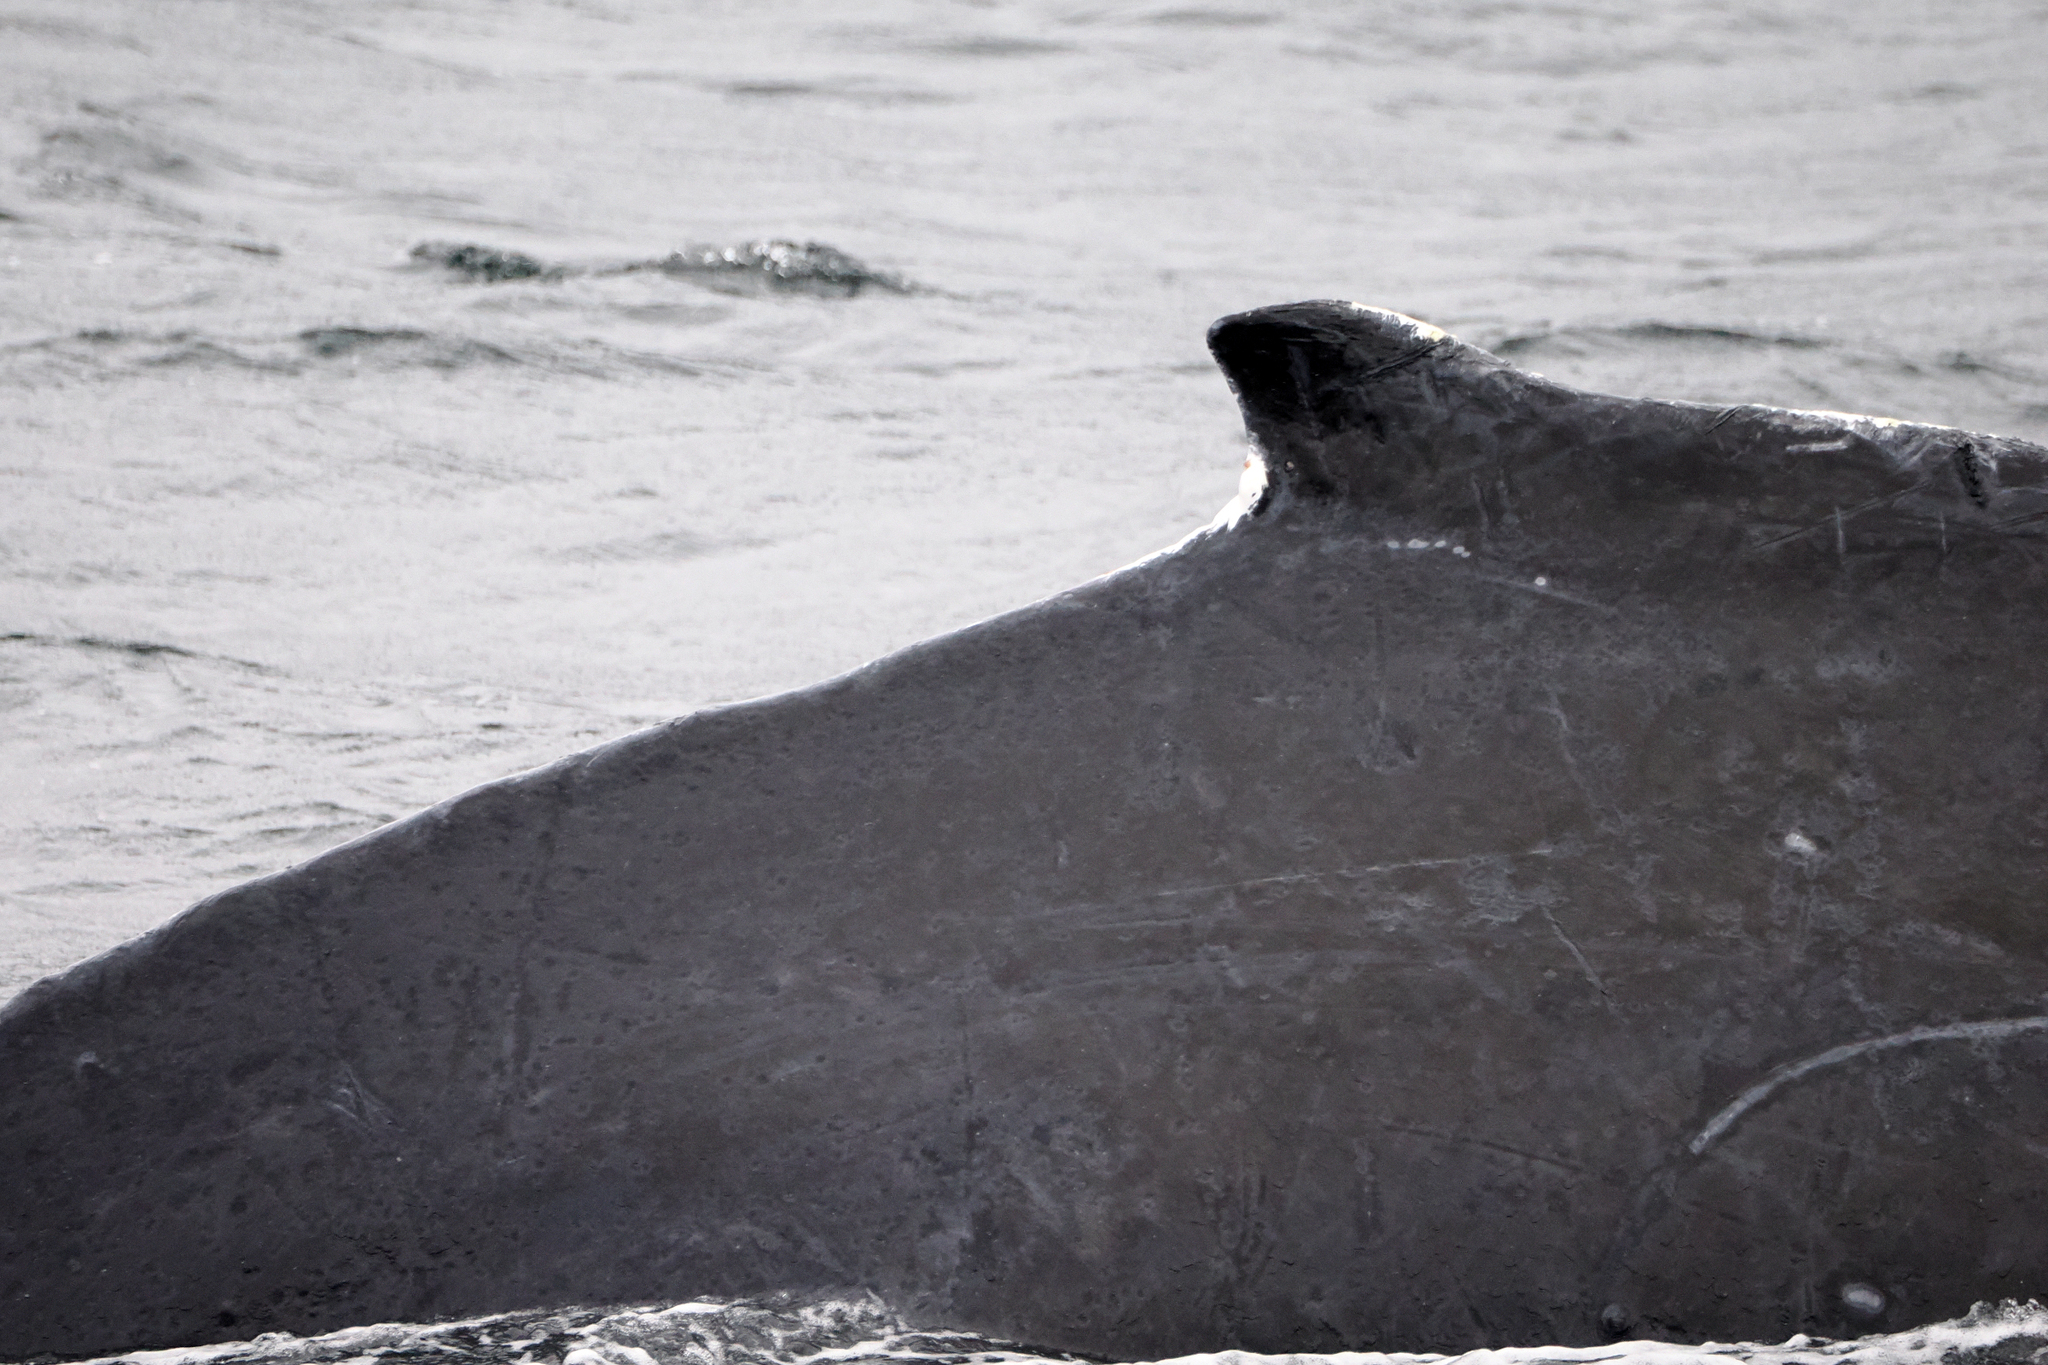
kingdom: Animalia
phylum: Chordata
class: Mammalia
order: Cetacea
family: Balaenopteridae
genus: Megaptera
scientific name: Megaptera novaeangliae
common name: Humpback whale
